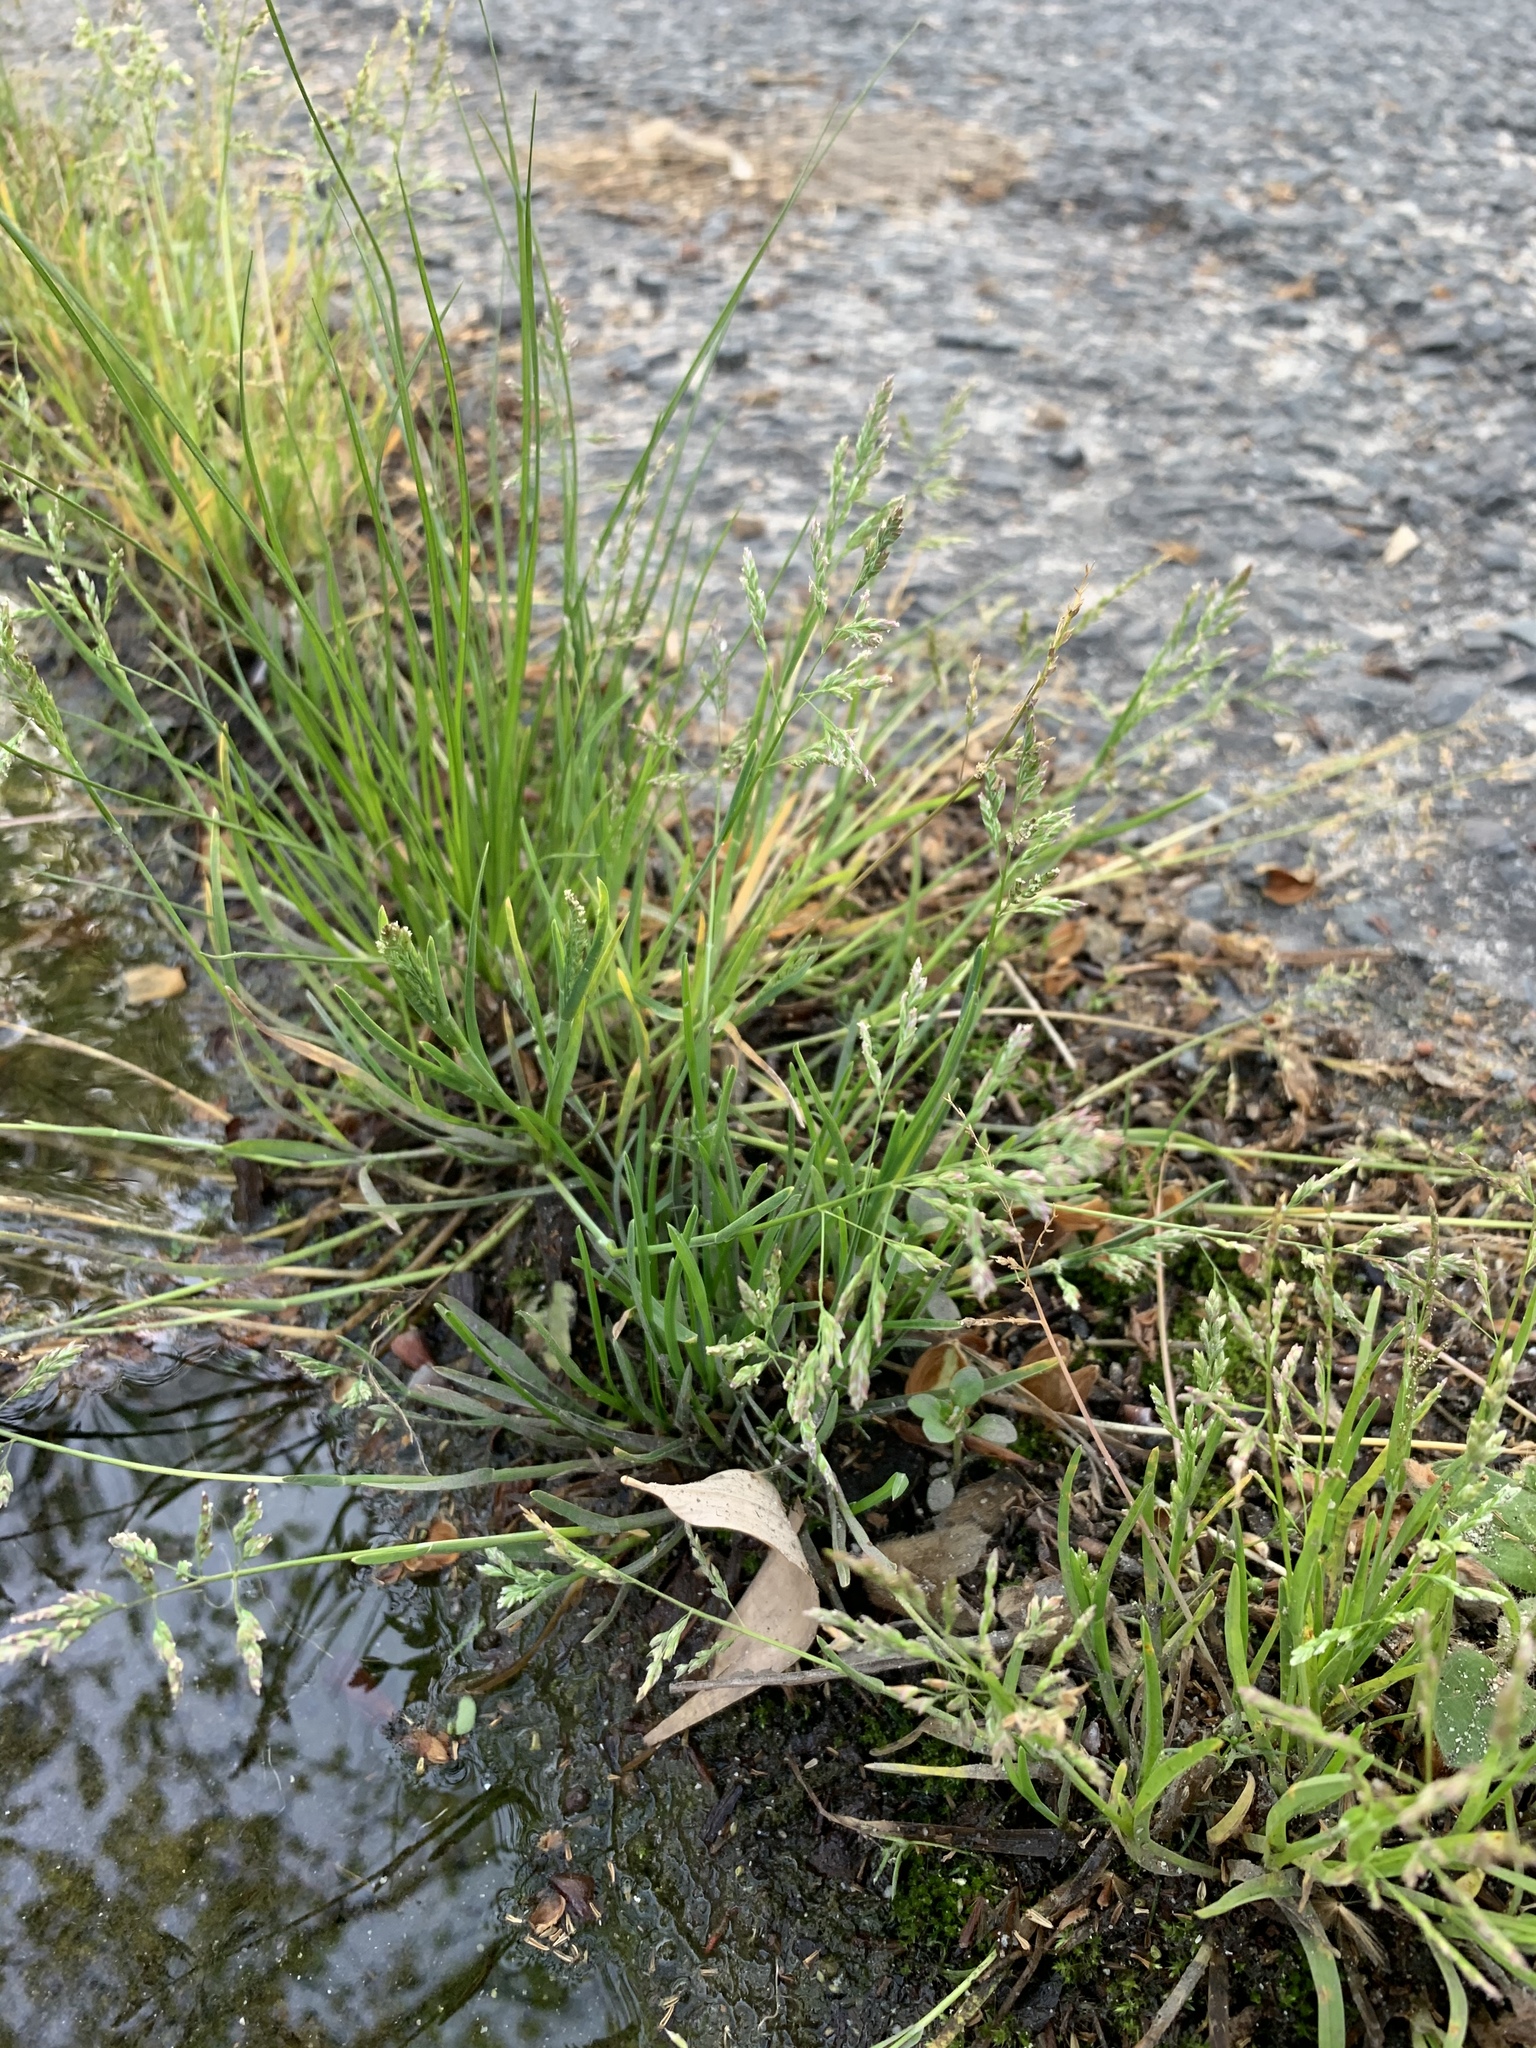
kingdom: Plantae
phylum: Tracheophyta
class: Liliopsida
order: Poales
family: Poaceae
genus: Poa
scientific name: Poa annua
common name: Annual bluegrass
